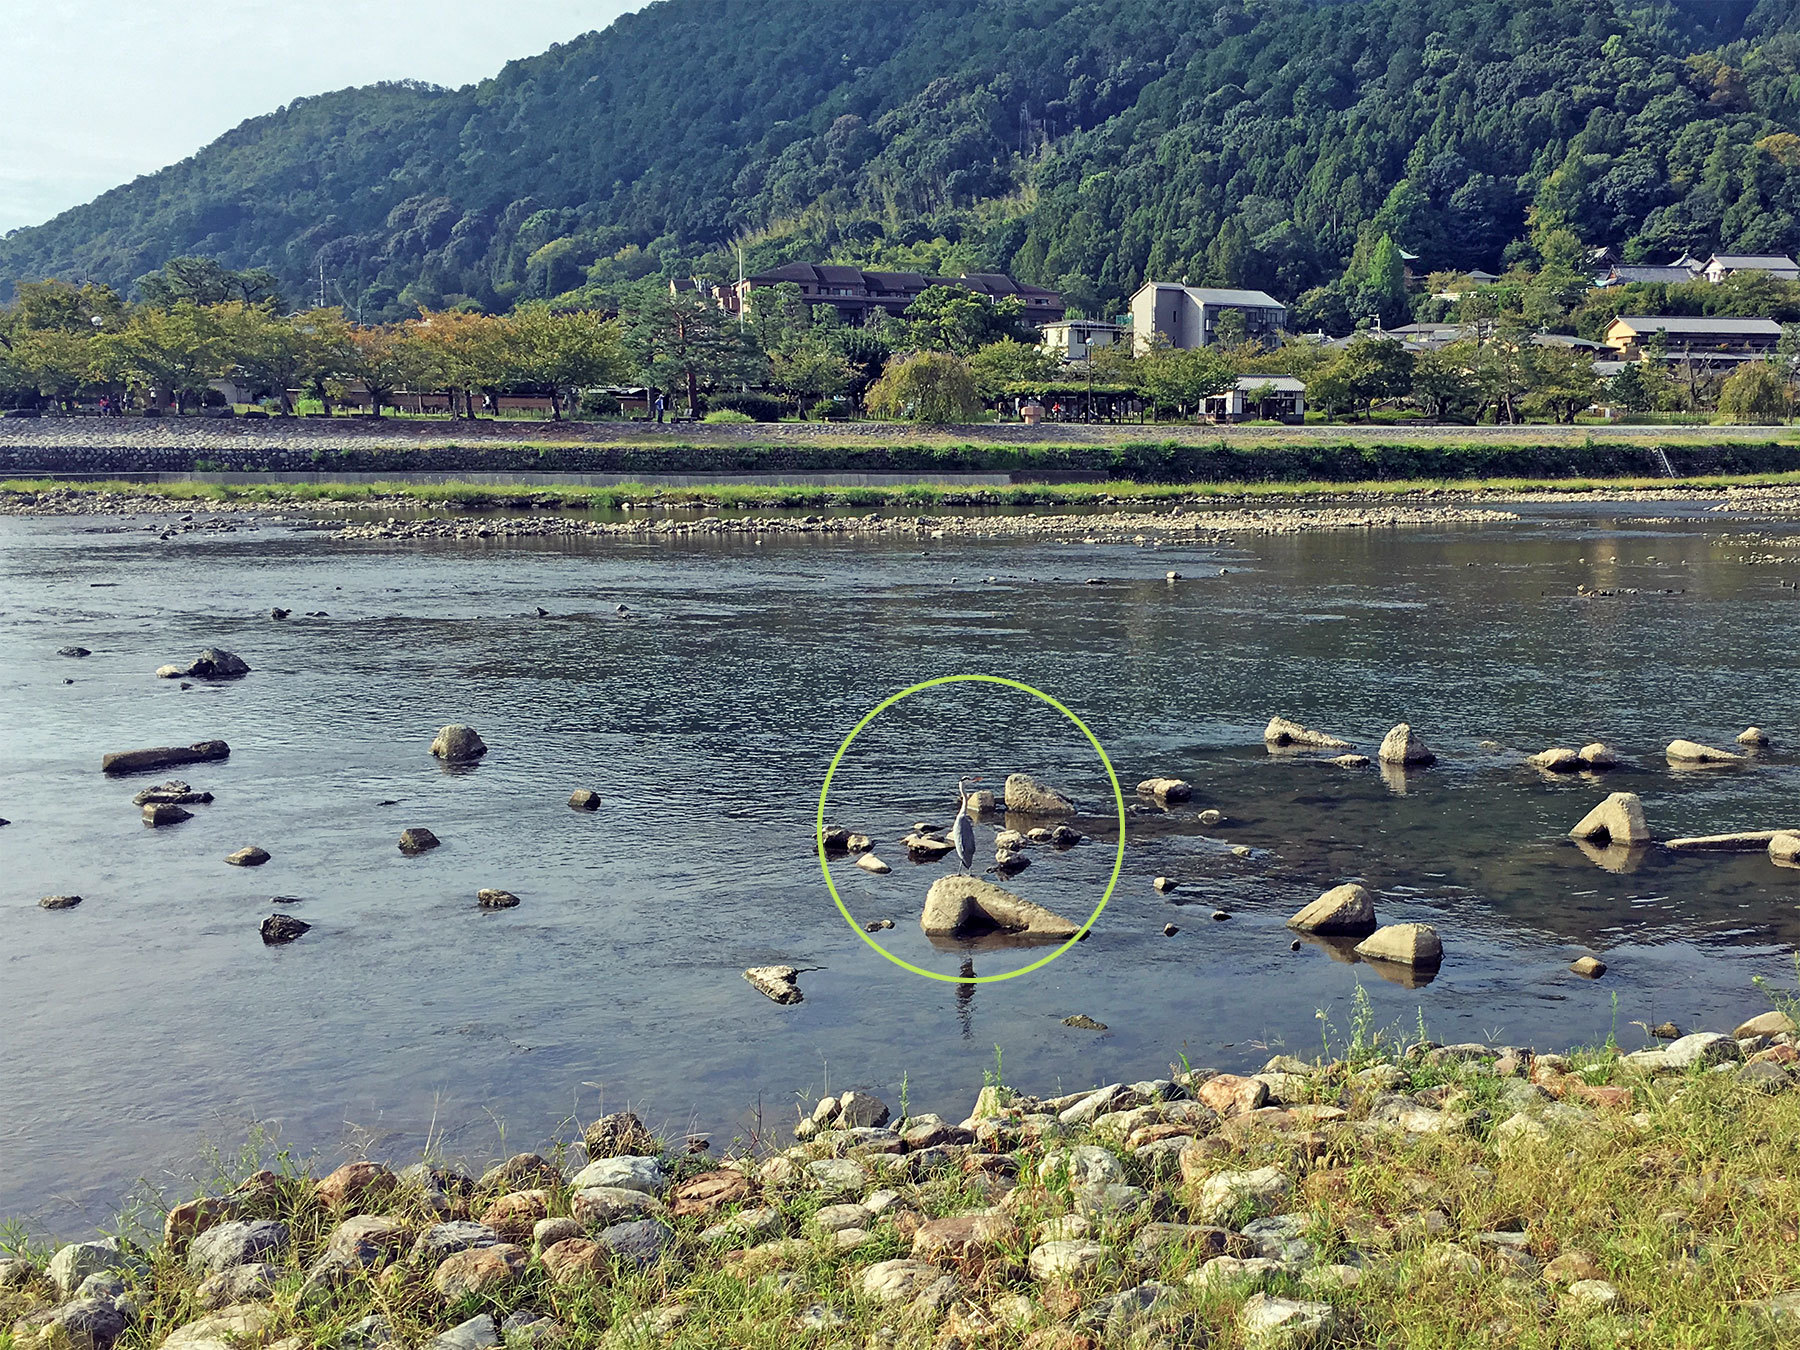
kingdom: Animalia
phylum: Chordata
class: Aves
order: Pelecaniformes
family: Ardeidae
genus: Ardea
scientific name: Ardea cinerea
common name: Grey heron
